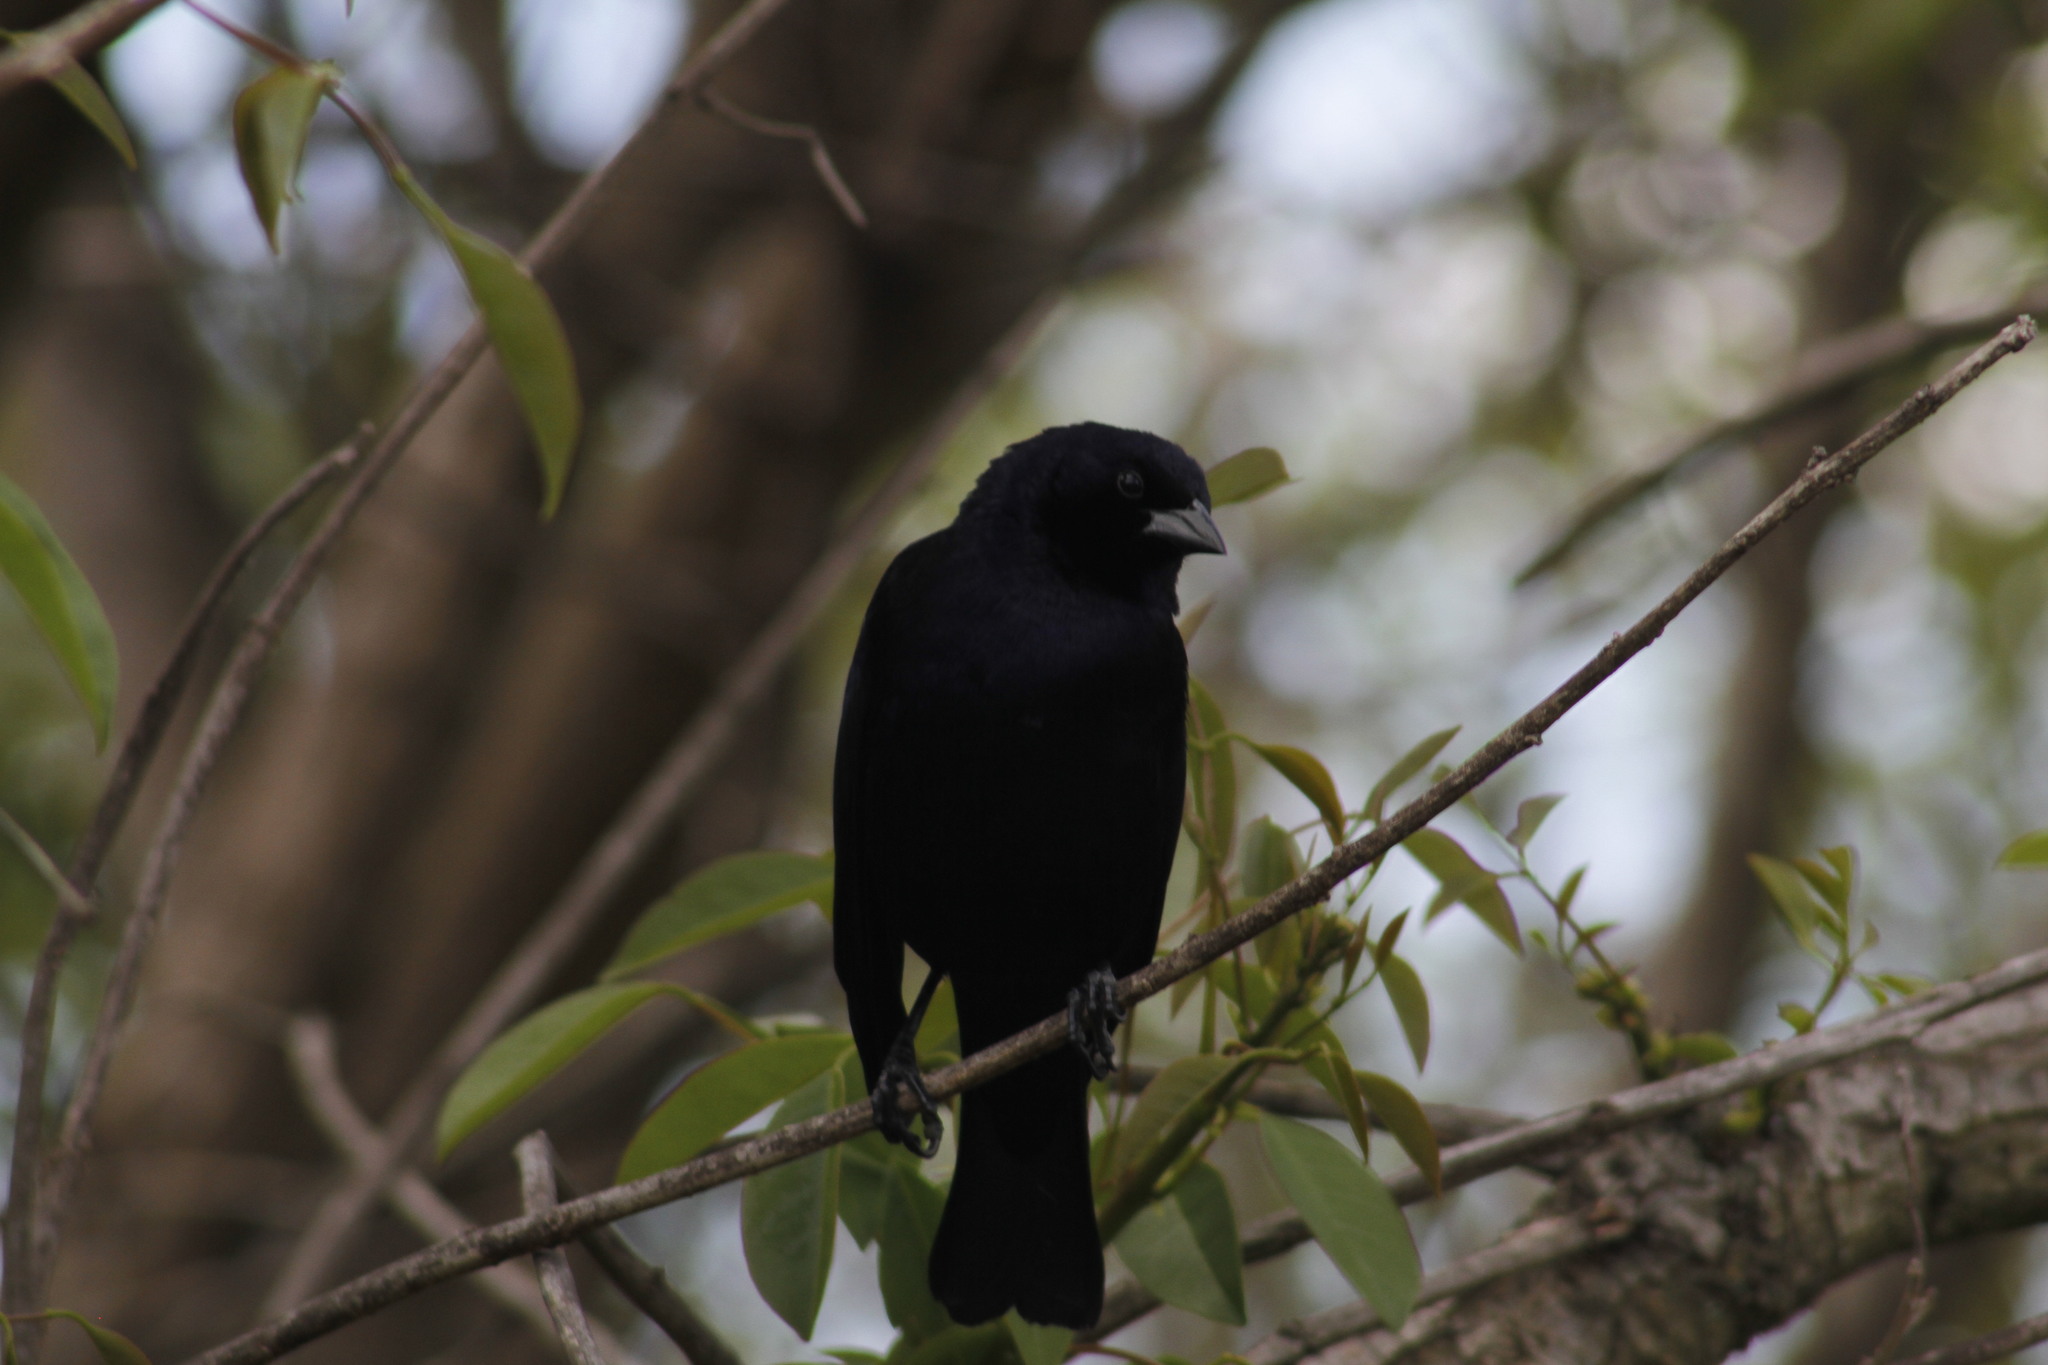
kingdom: Animalia
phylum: Chordata
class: Aves
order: Passeriformes
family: Icteridae
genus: Molothrus
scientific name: Molothrus rufoaxillaris
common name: Screaming cowbird
